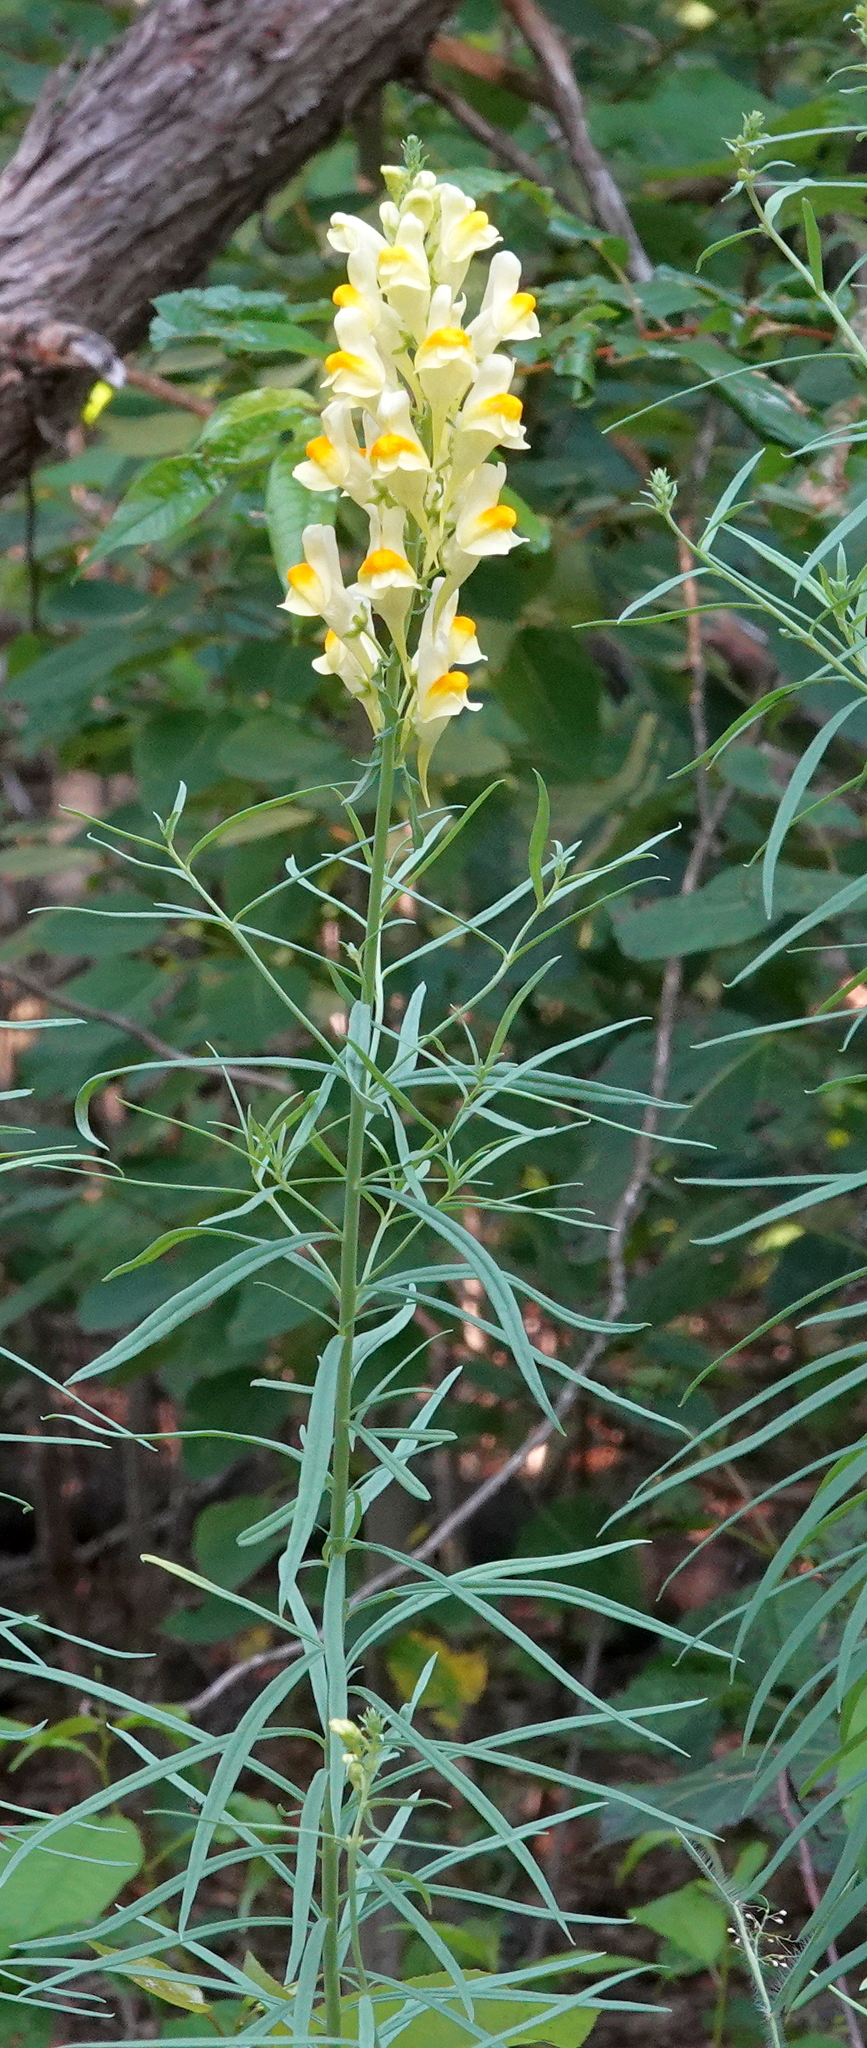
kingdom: Plantae
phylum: Tracheophyta
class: Magnoliopsida
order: Lamiales
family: Plantaginaceae
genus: Linaria
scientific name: Linaria vulgaris
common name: Butter and eggs
